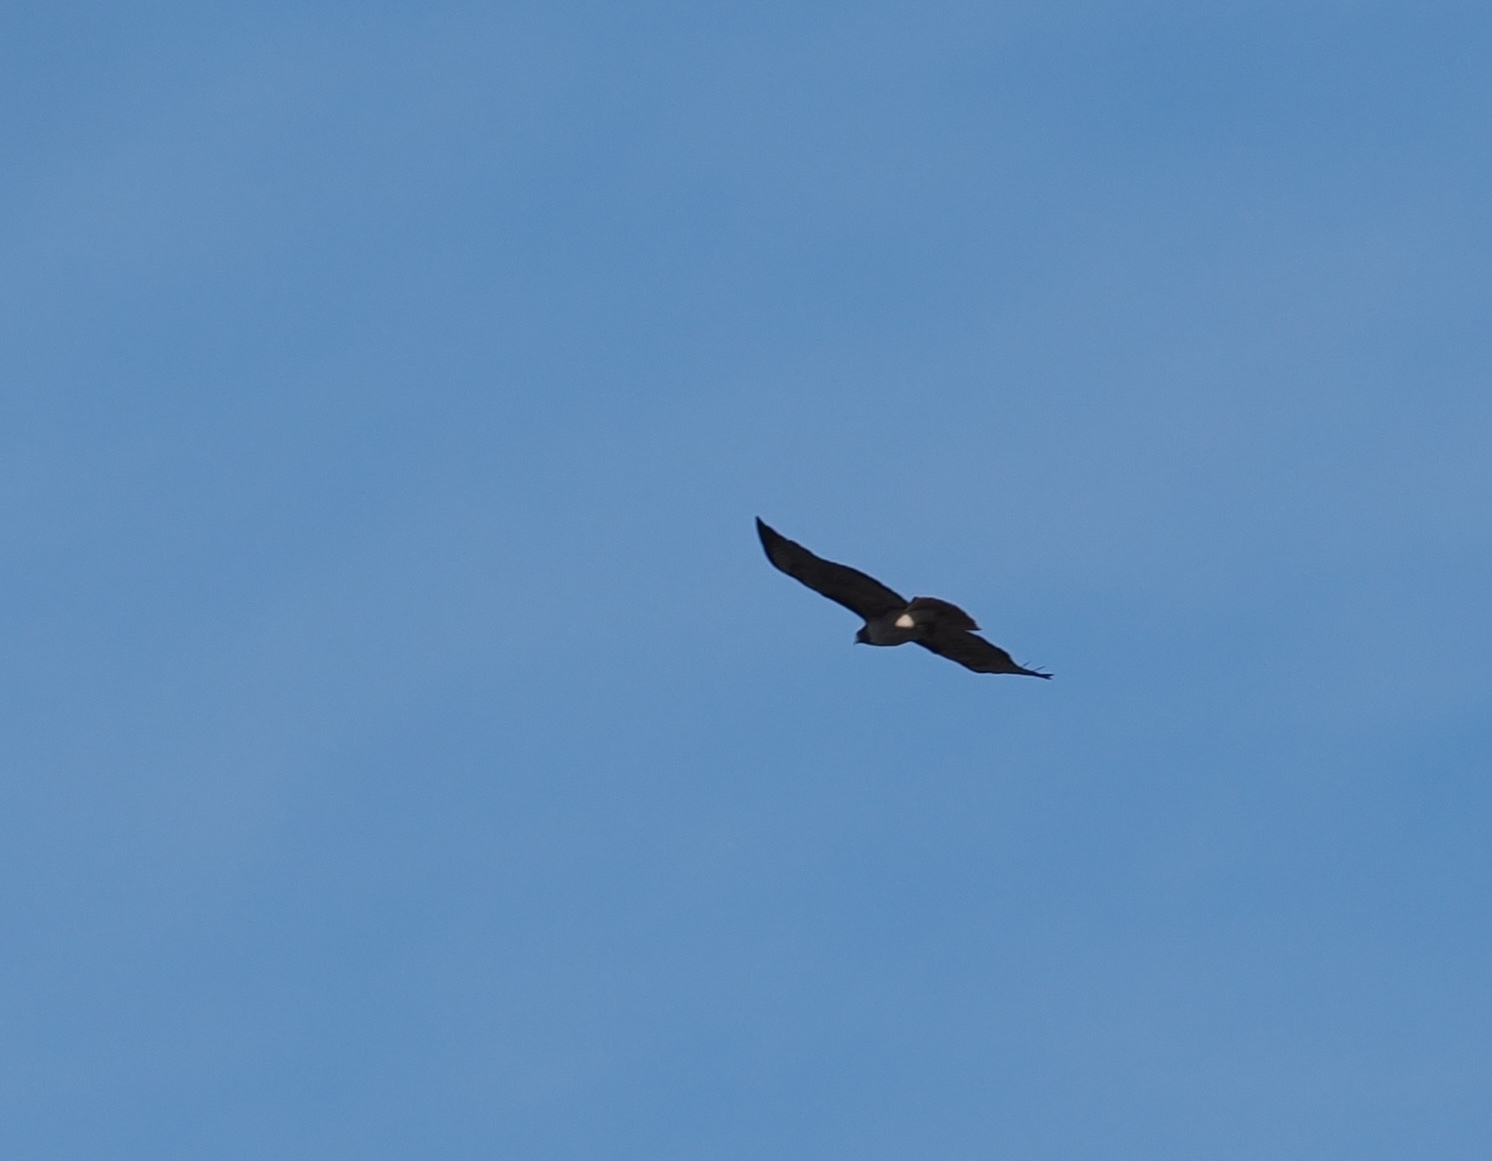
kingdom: Animalia
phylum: Chordata
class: Aves
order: Accipitriformes
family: Accipitridae
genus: Buteo
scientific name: Buteo jamaicensis
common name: Red-tailed hawk
